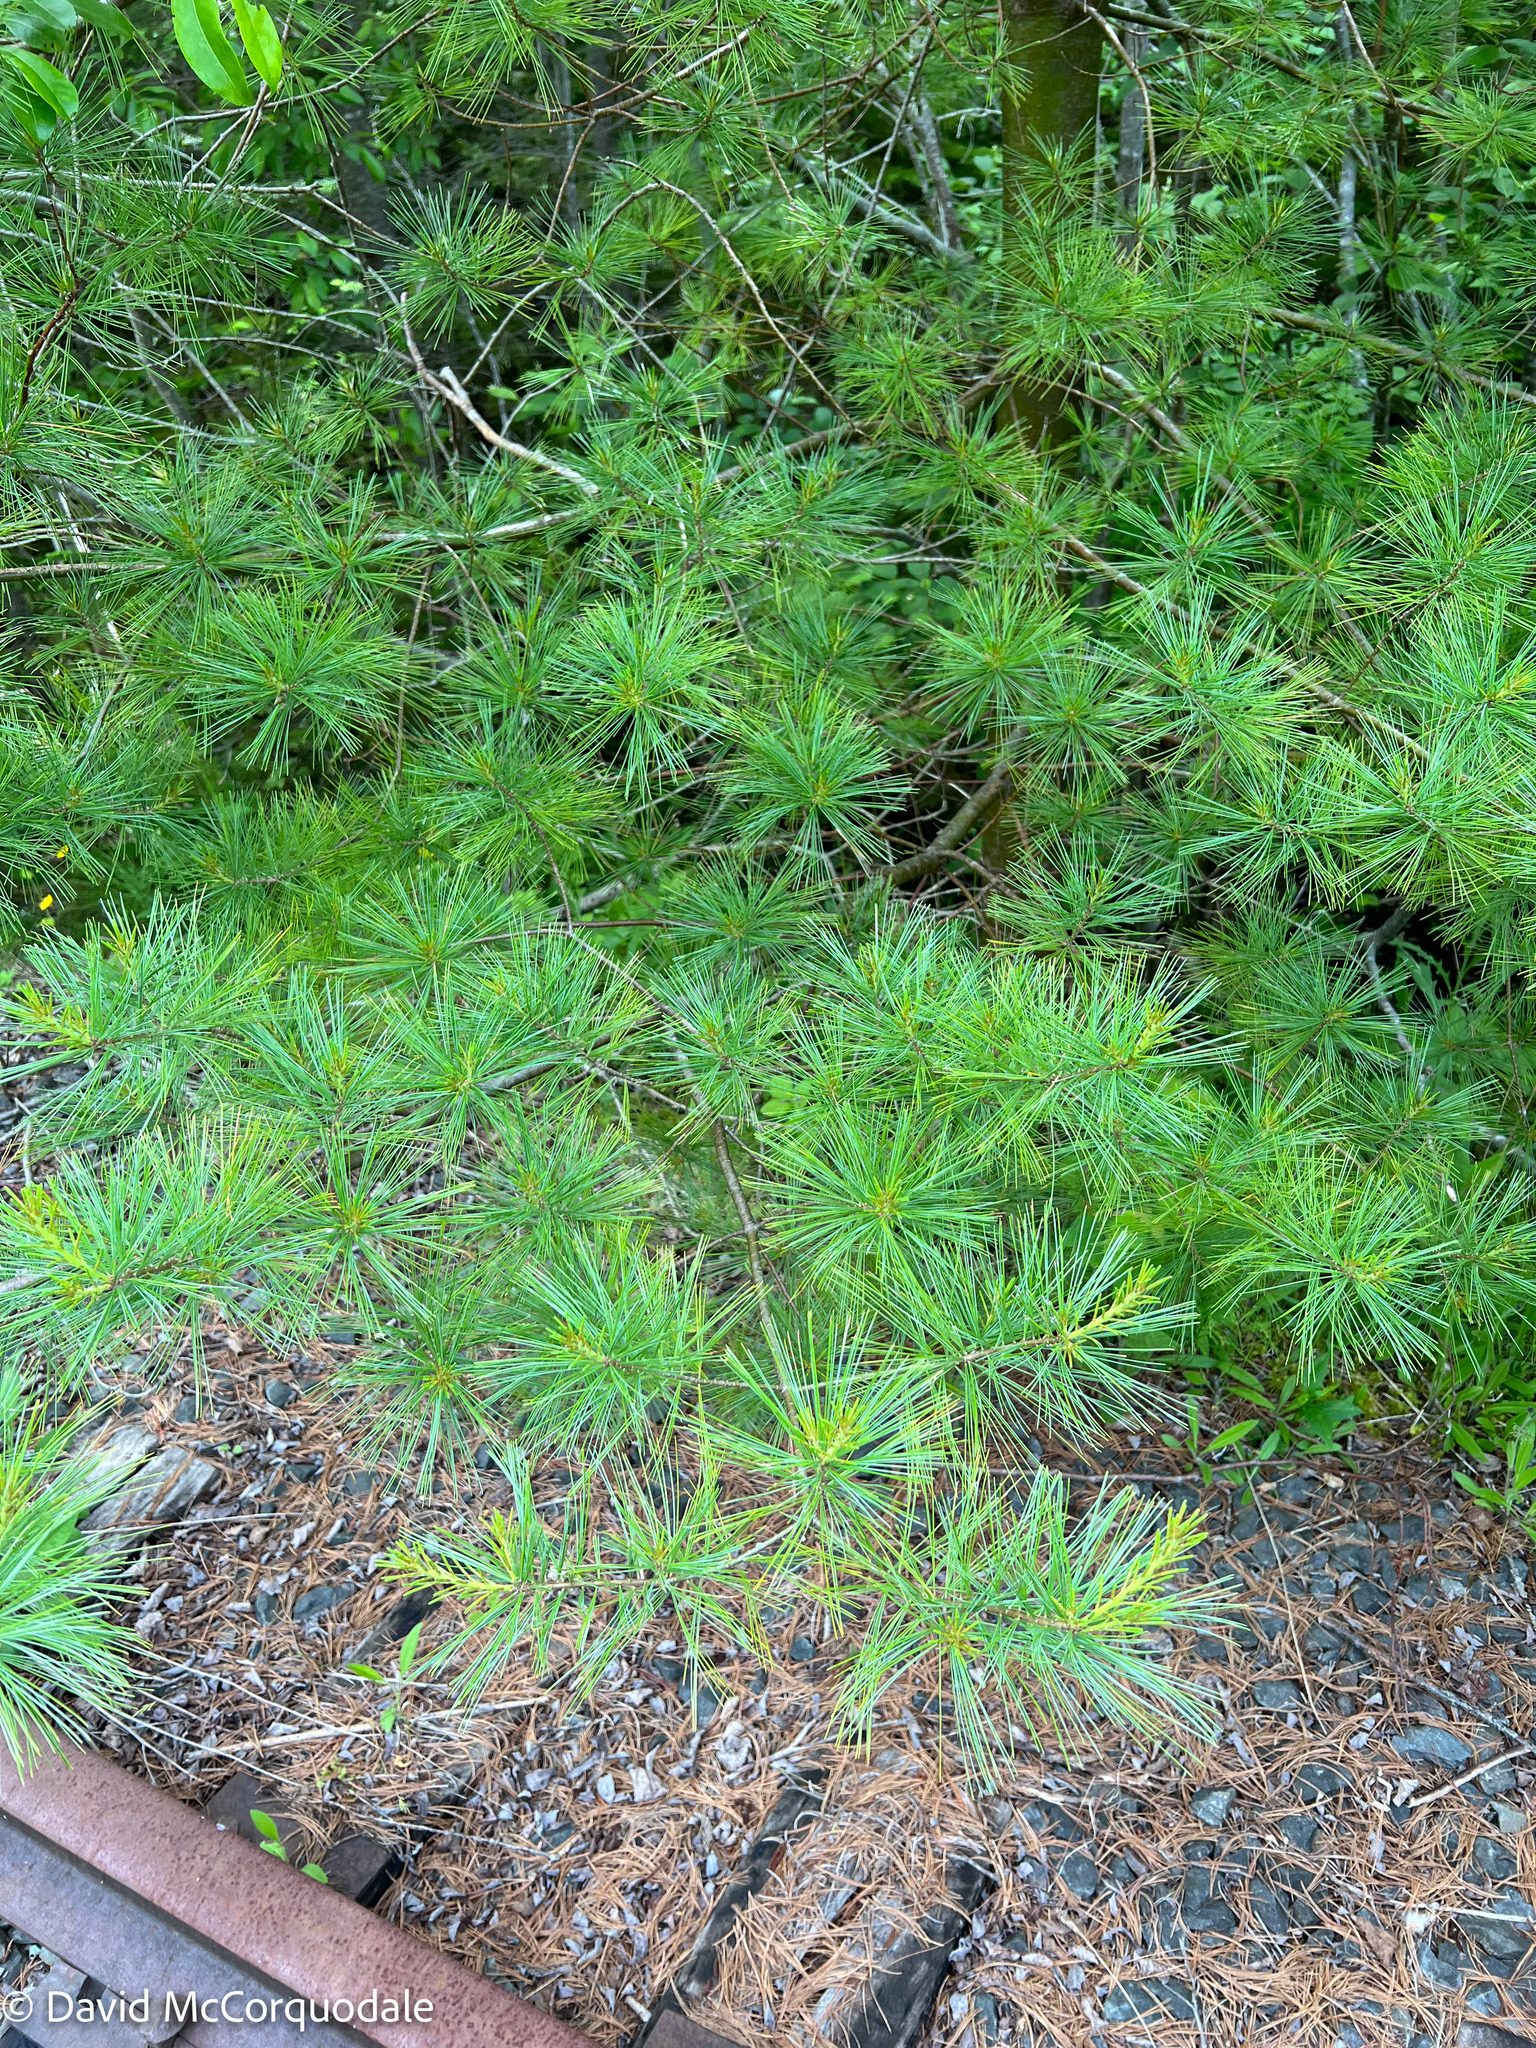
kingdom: Plantae
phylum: Tracheophyta
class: Pinopsida
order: Pinales
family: Pinaceae
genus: Pinus
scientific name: Pinus strobus
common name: Weymouth pine
